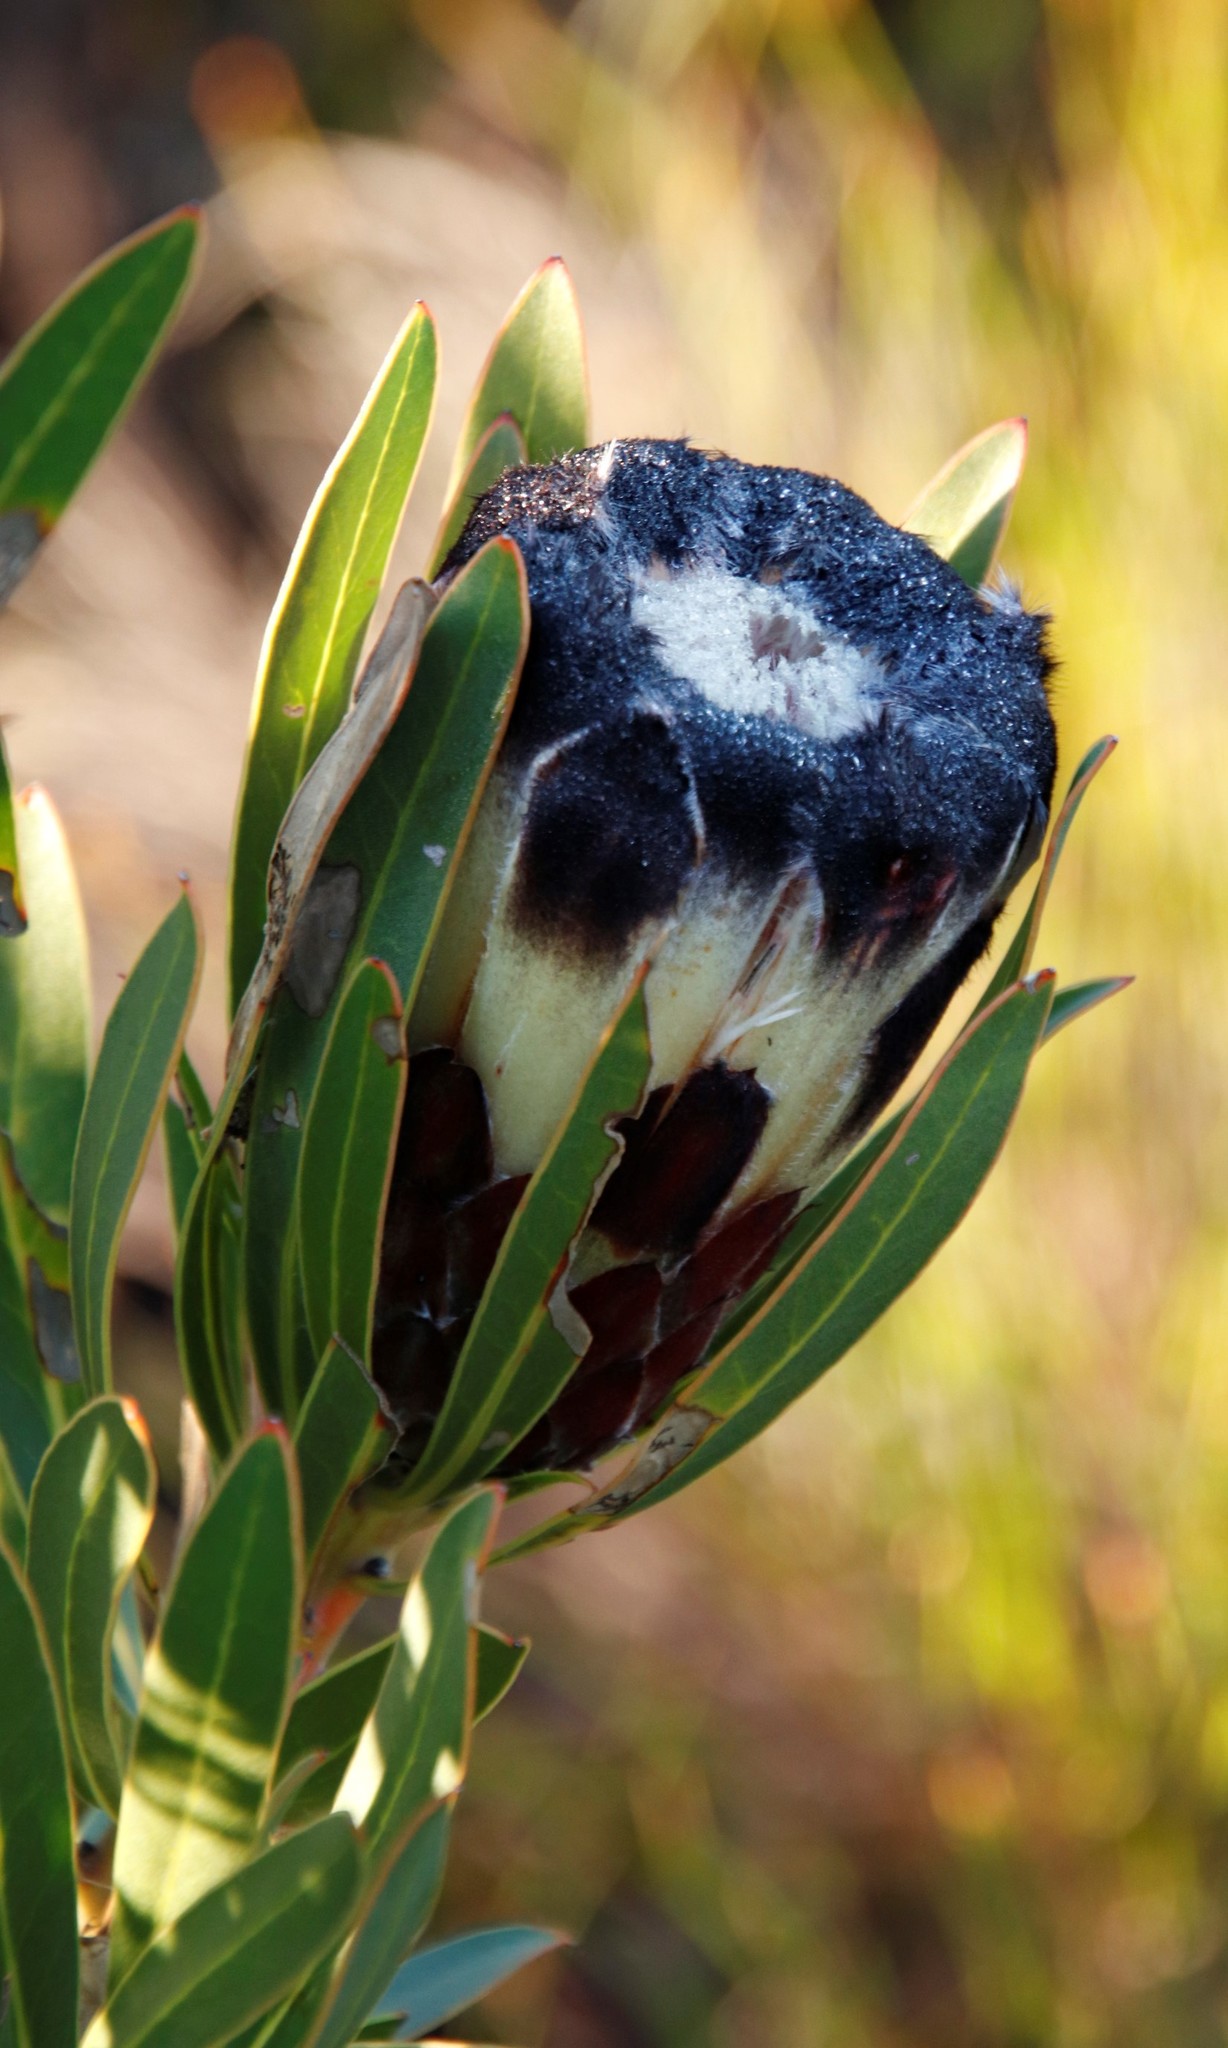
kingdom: Plantae
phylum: Tracheophyta
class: Magnoliopsida
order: Proteales
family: Proteaceae
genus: Protea
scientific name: Protea lepidocarpodendron
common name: Black-bearded protea
